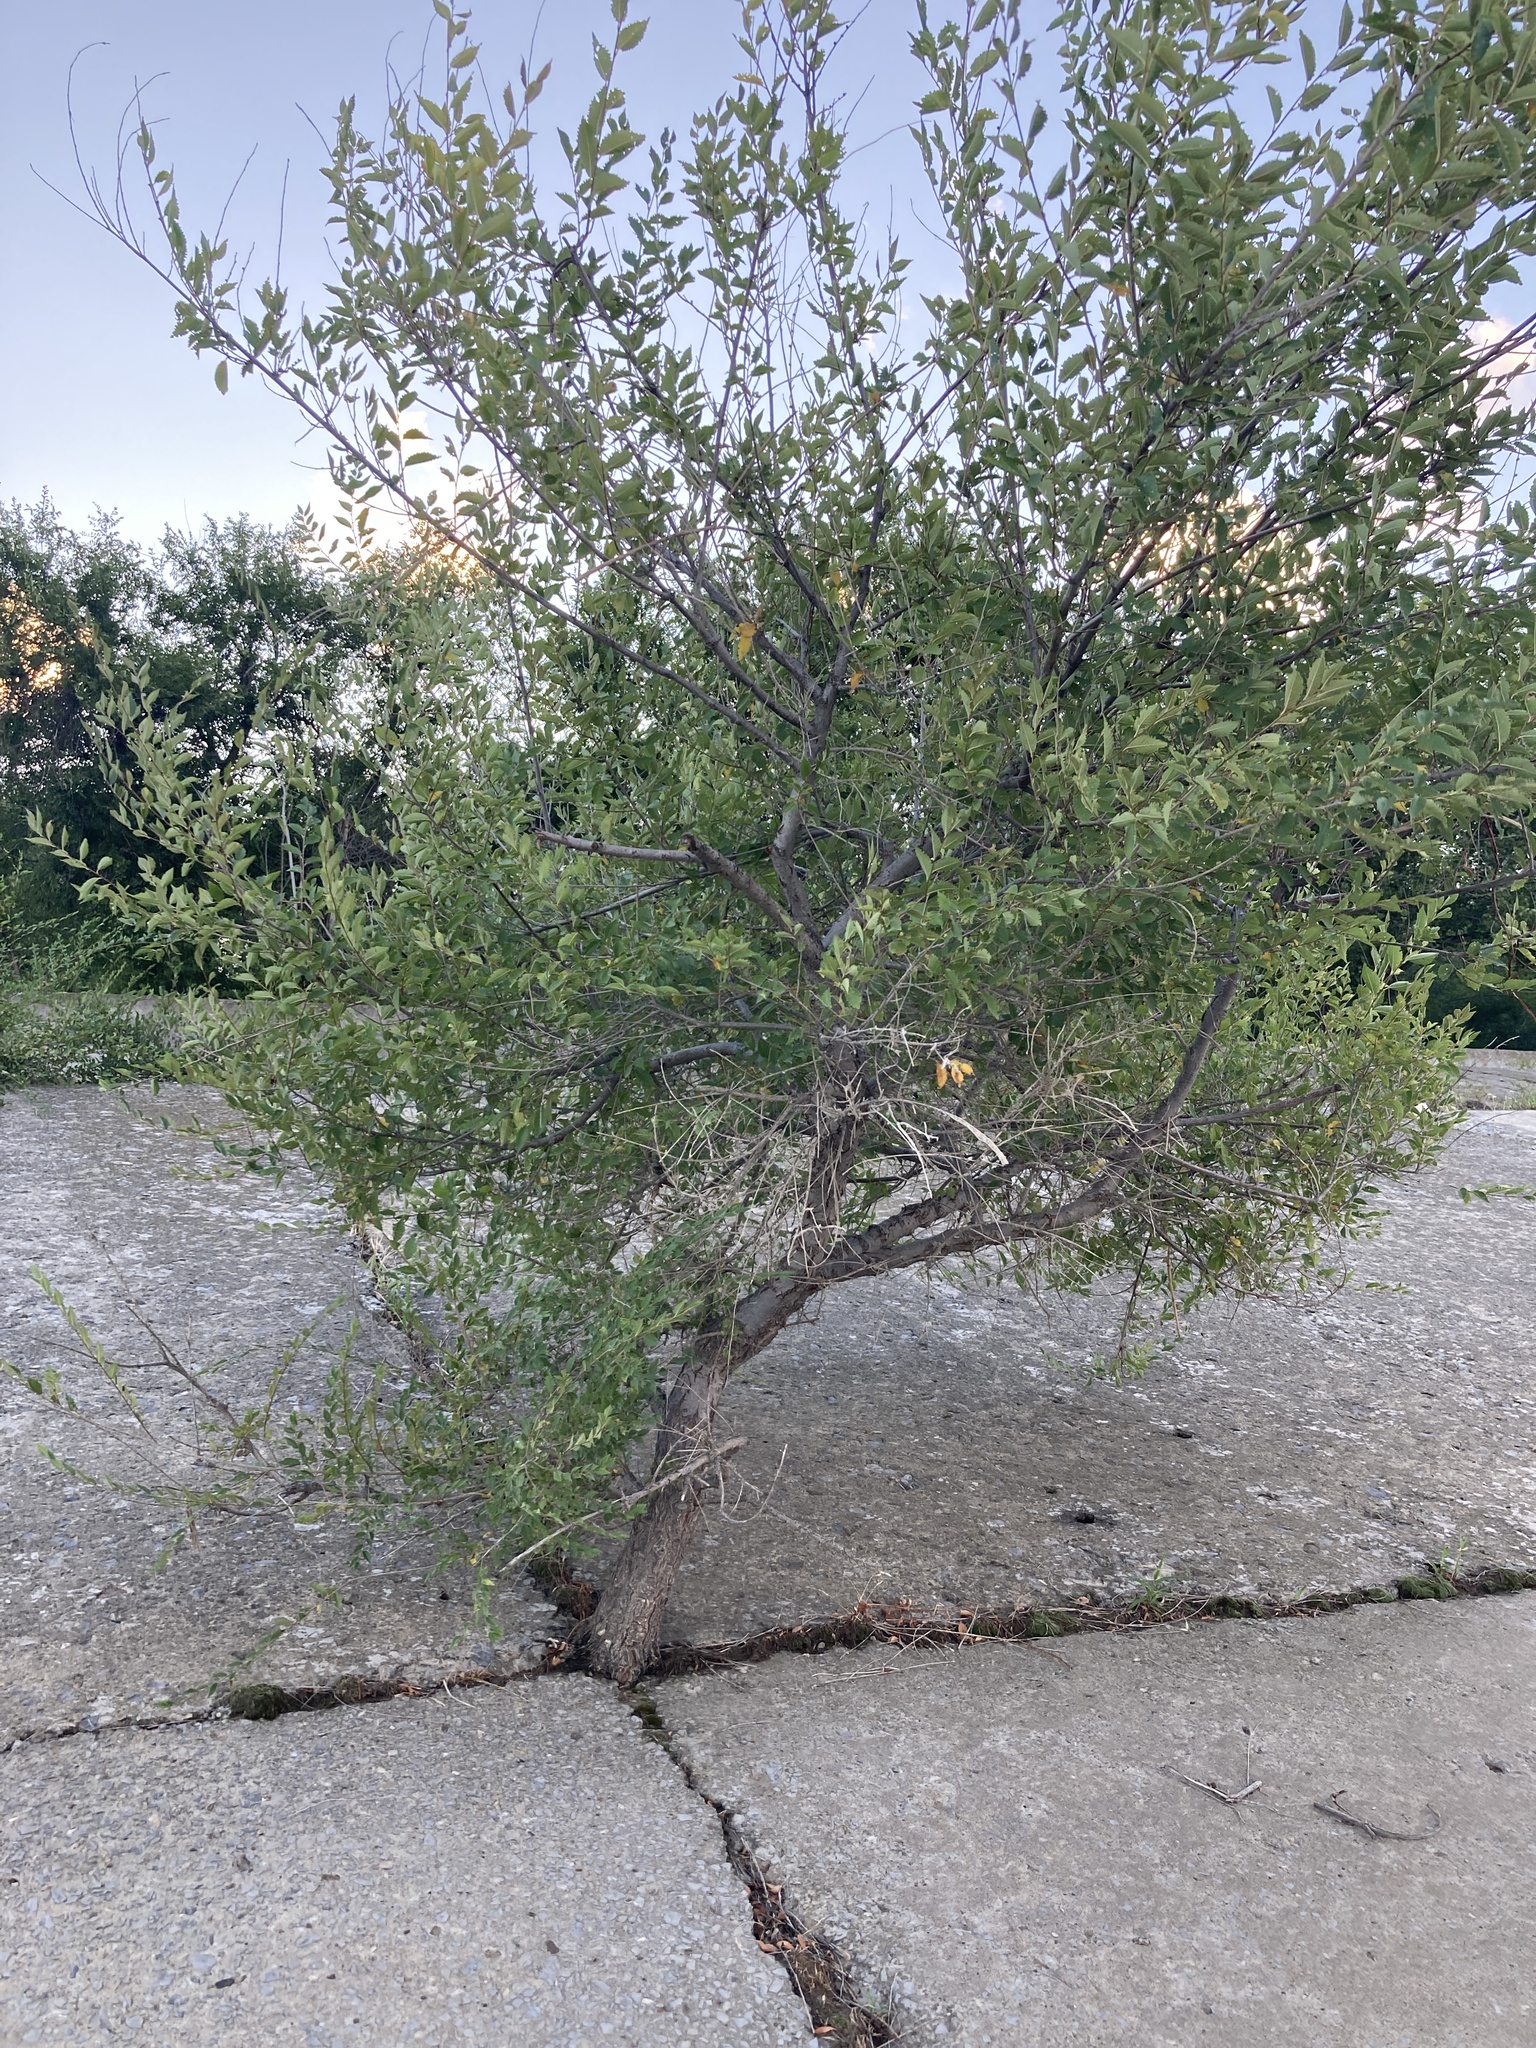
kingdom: Plantae
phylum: Tracheophyta
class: Magnoliopsida
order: Rosales
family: Ulmaceae
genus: Ulmus
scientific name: Ulmus pumila
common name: Siberian elm
